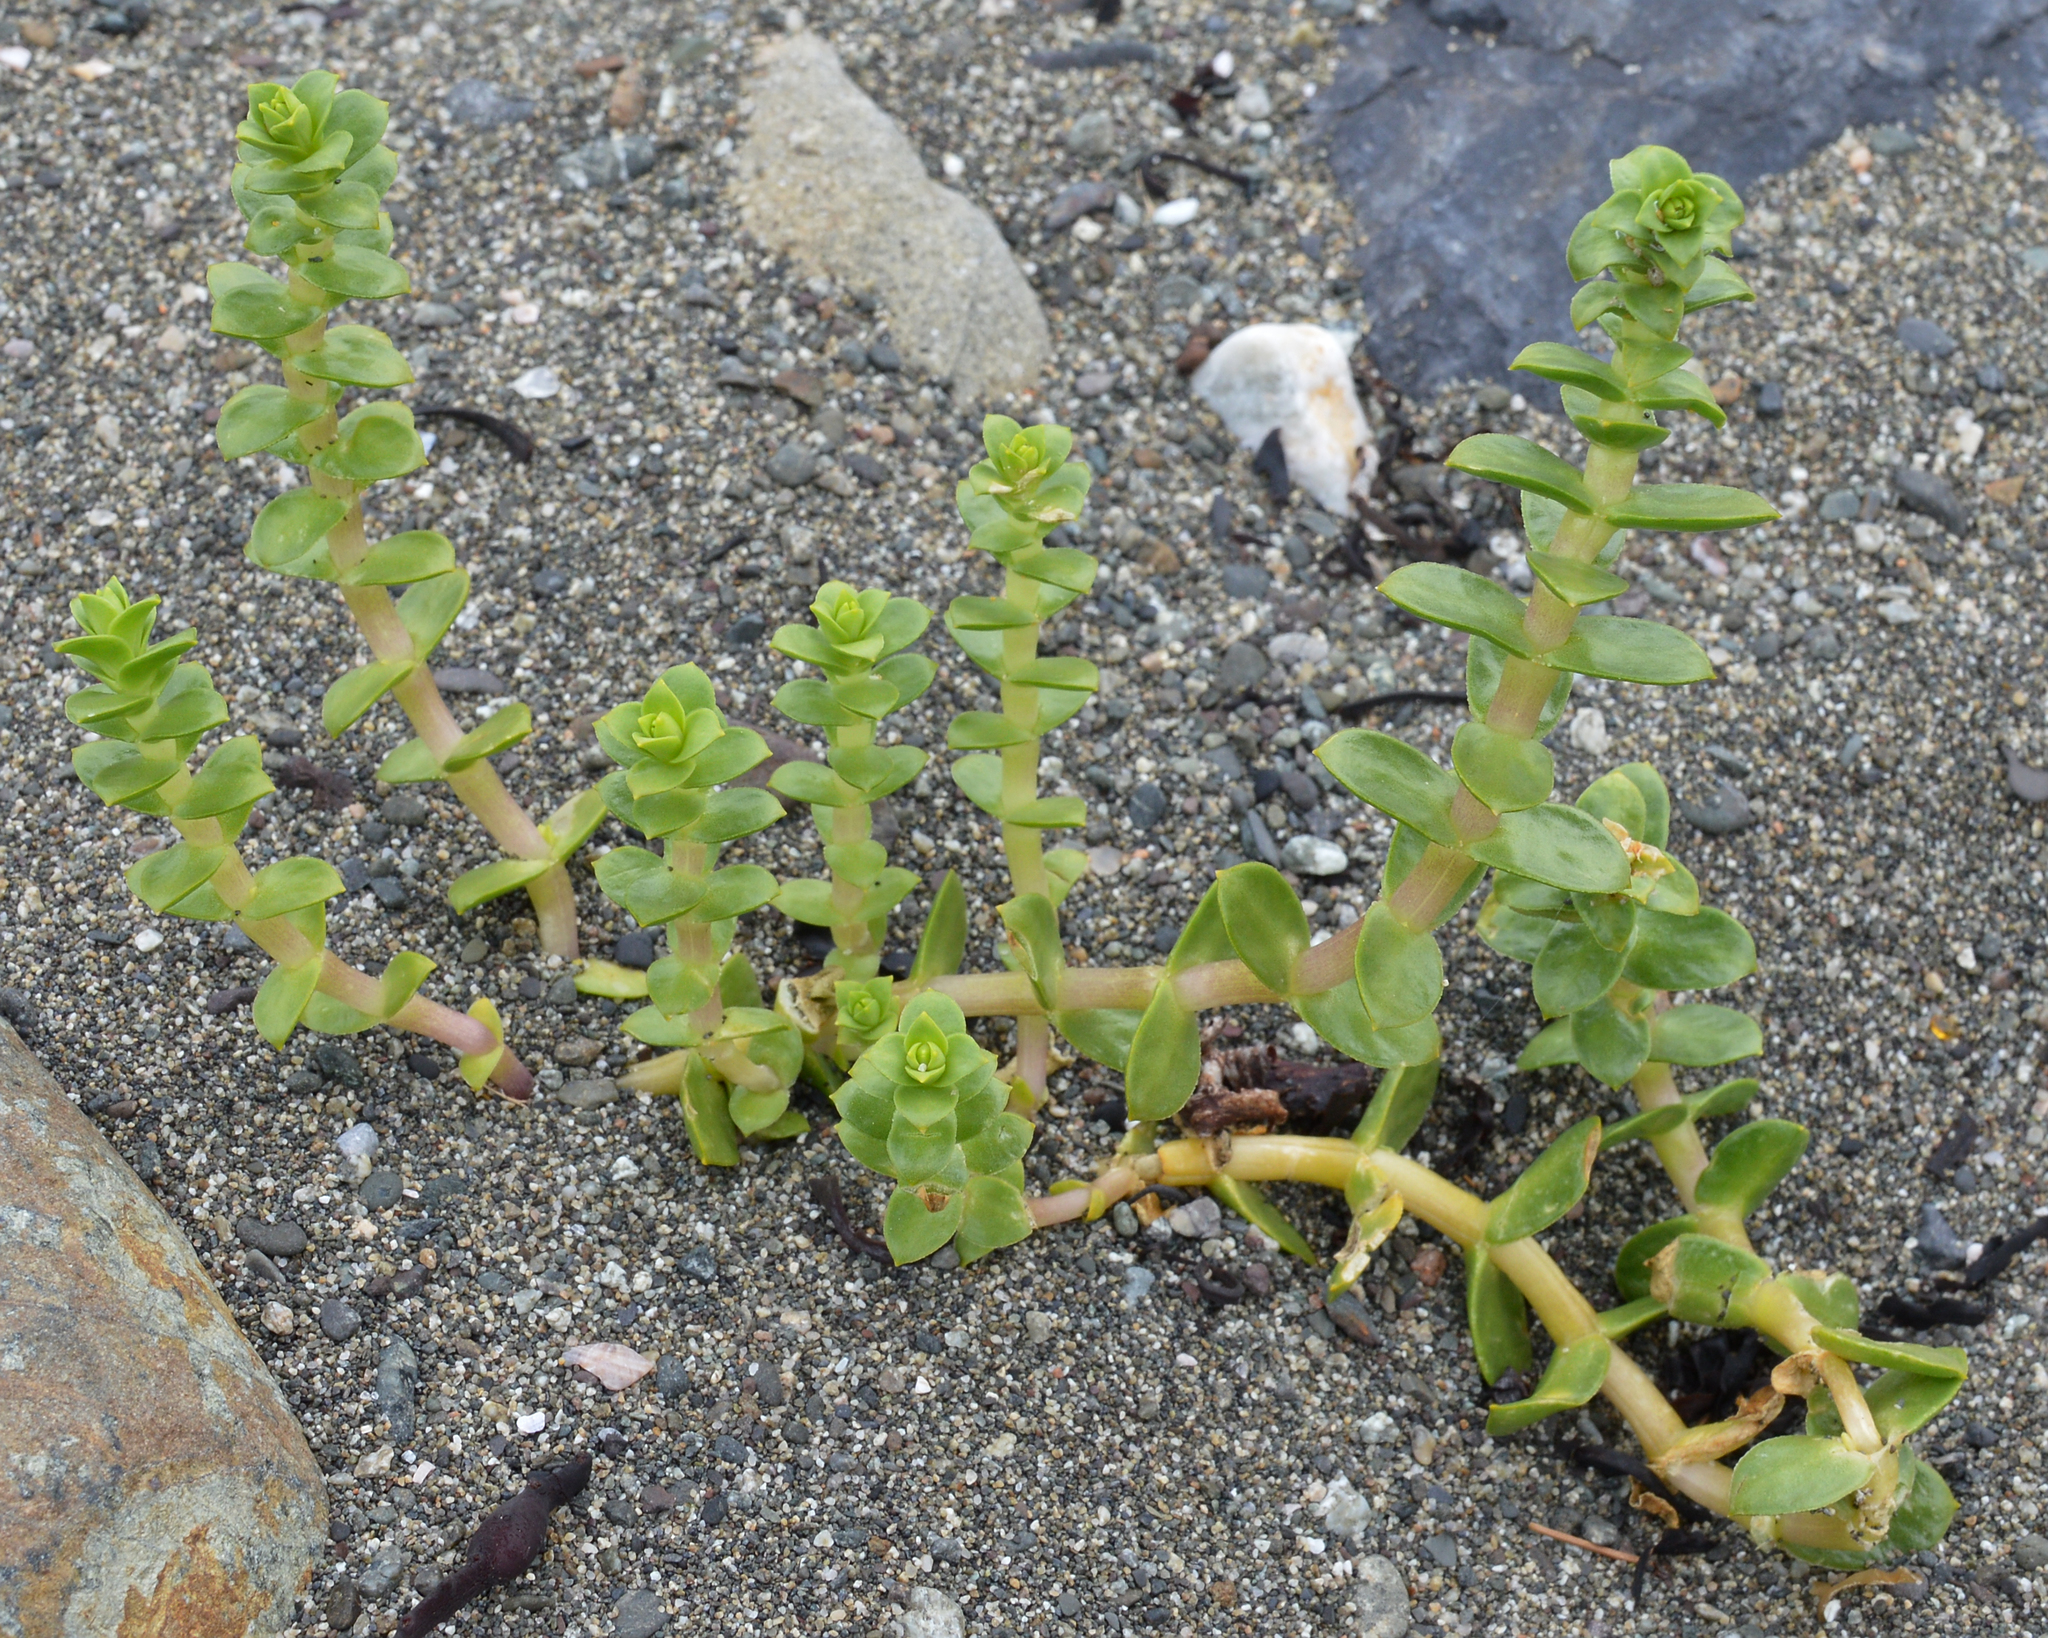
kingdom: Plantae
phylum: Tracheophyta
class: Magnoliopsida
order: Caryophyllales
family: Caryophyllaceae
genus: Honckenya
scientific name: Honckenya peploides
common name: Sea sandwort
